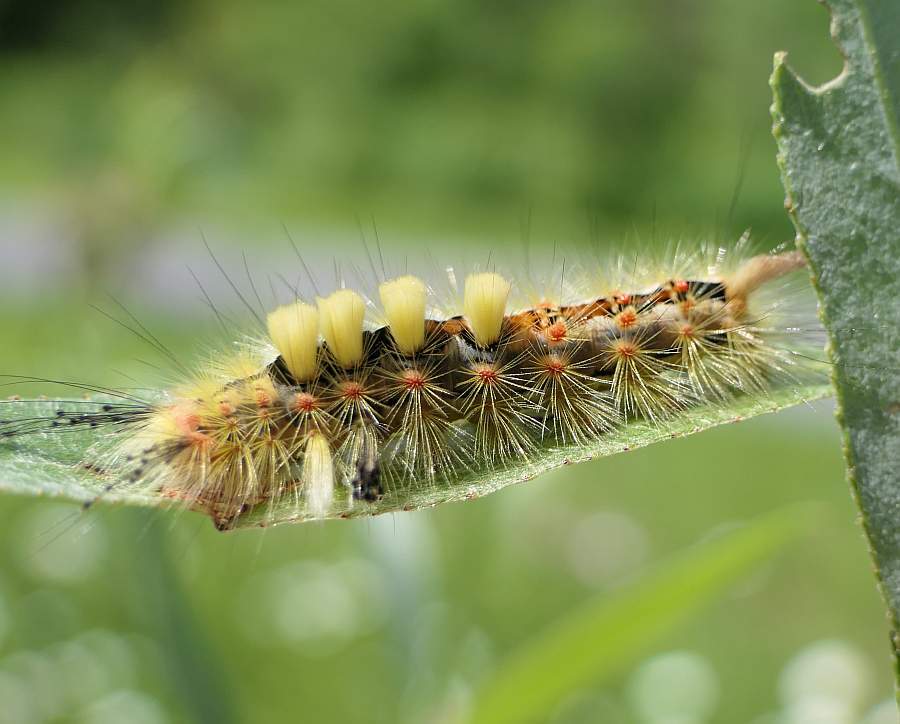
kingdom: Animalia
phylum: Arthropoda
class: Insecta
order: Lepidoptera
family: Erebidae
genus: Orgyia
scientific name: Orgyia antiqua
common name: Vapourer
